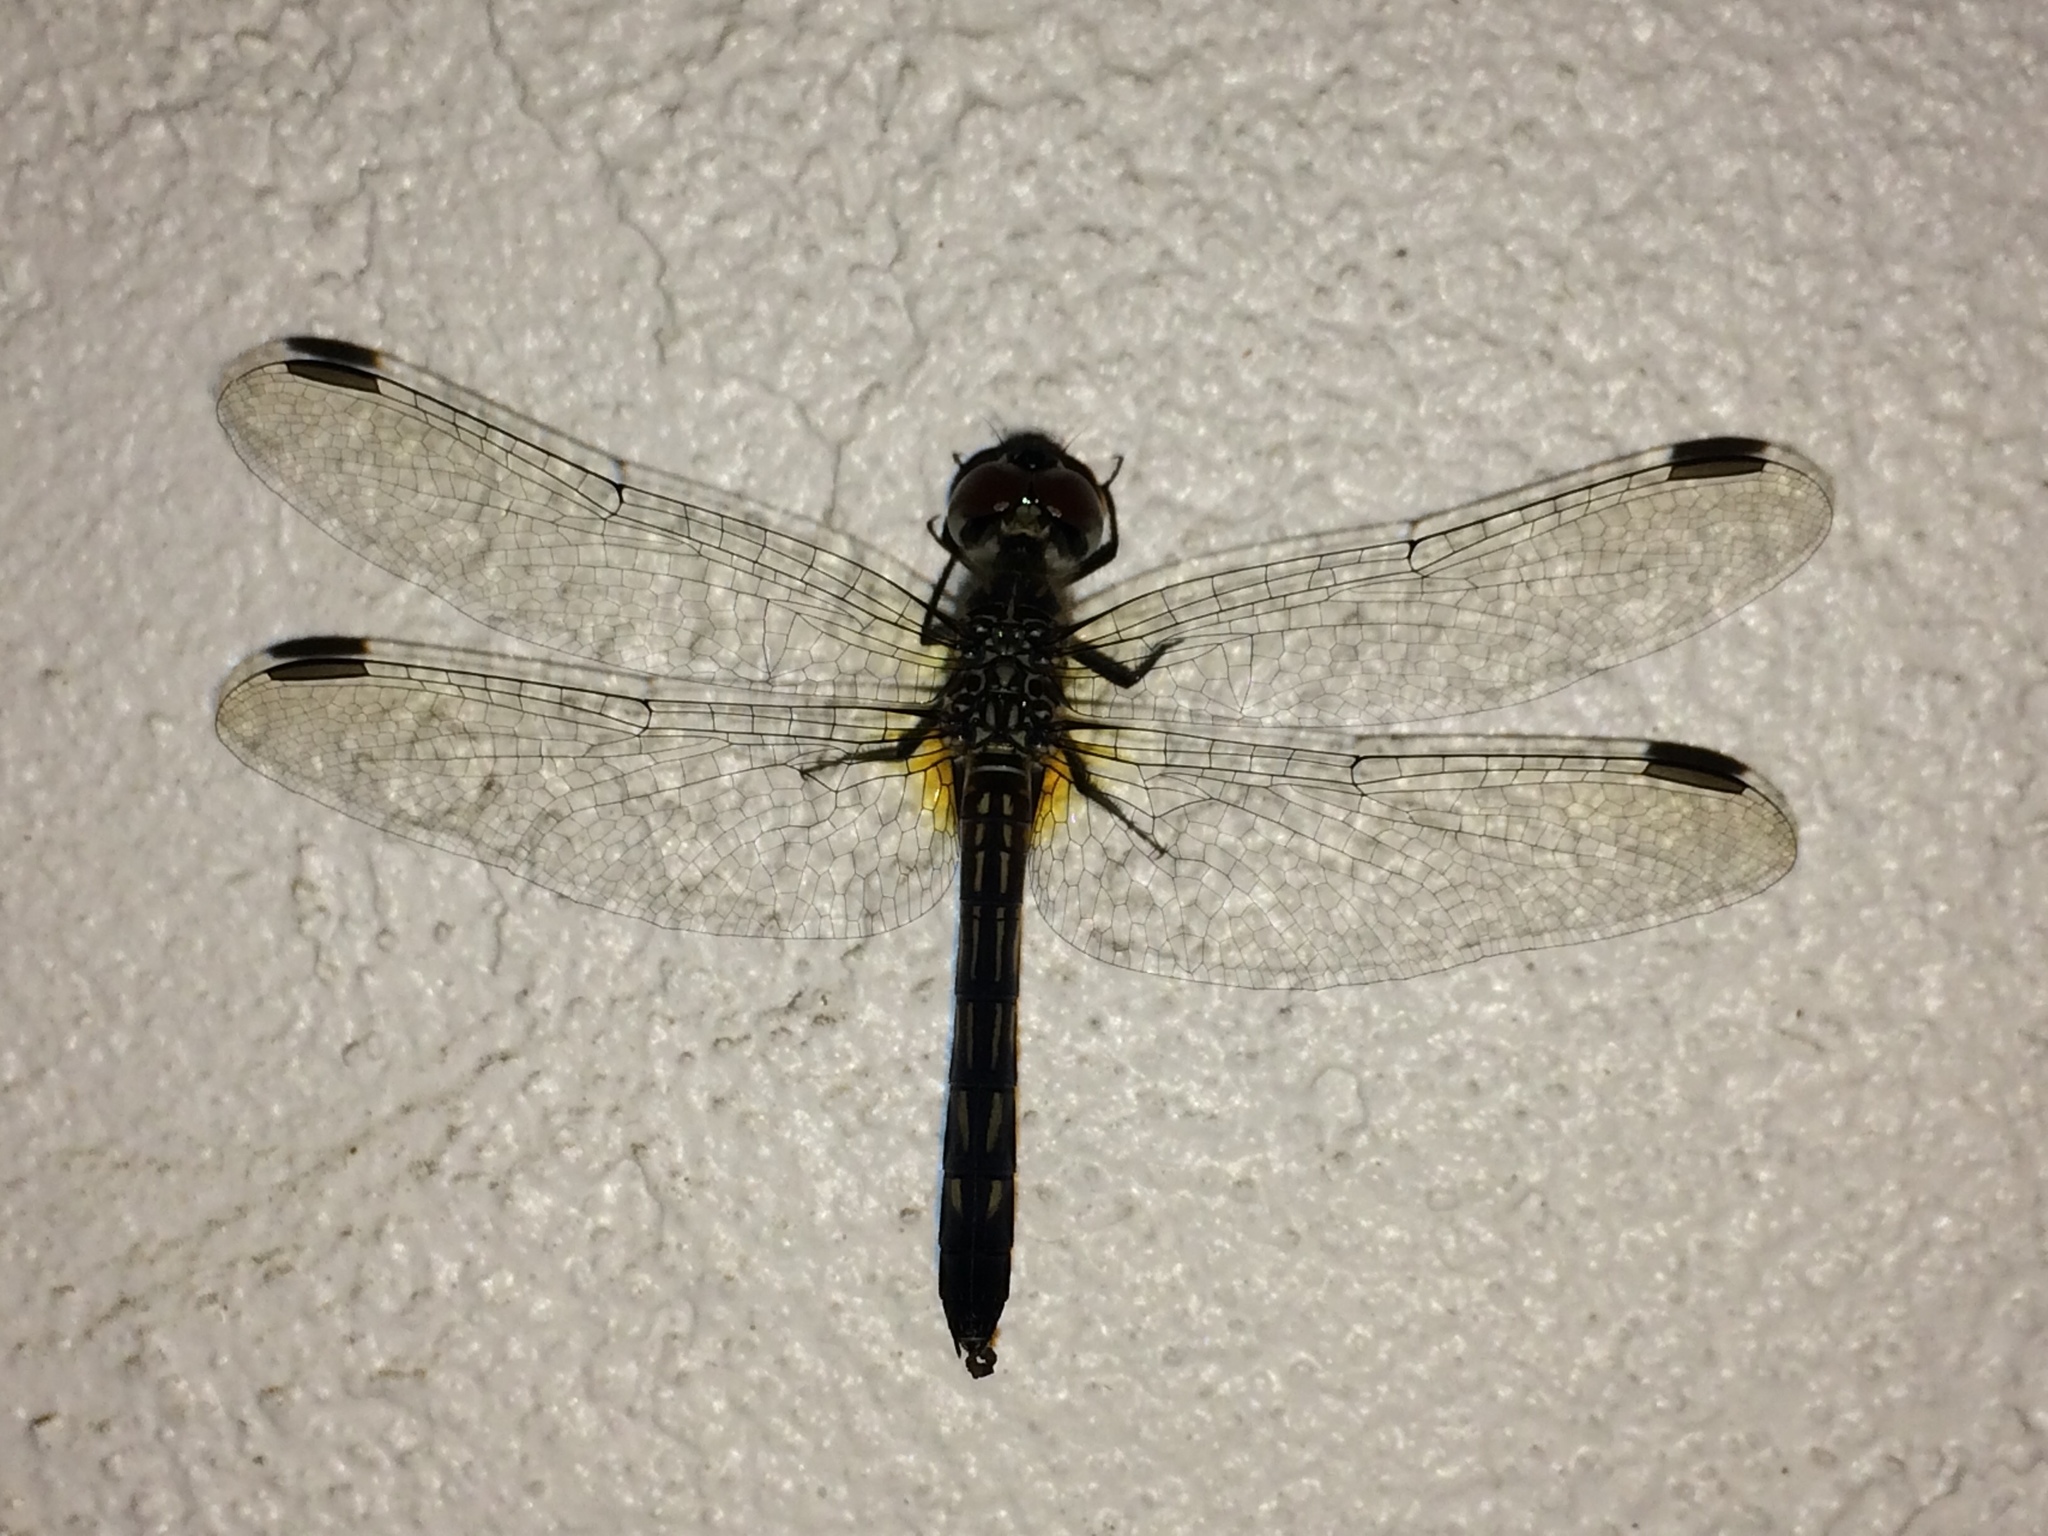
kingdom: Animalia
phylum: Arthropoda
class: Insecta
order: Odonata
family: Libellulidae
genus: Pachydiplax
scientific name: Pachydiplax longipennis
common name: Blue dasher
